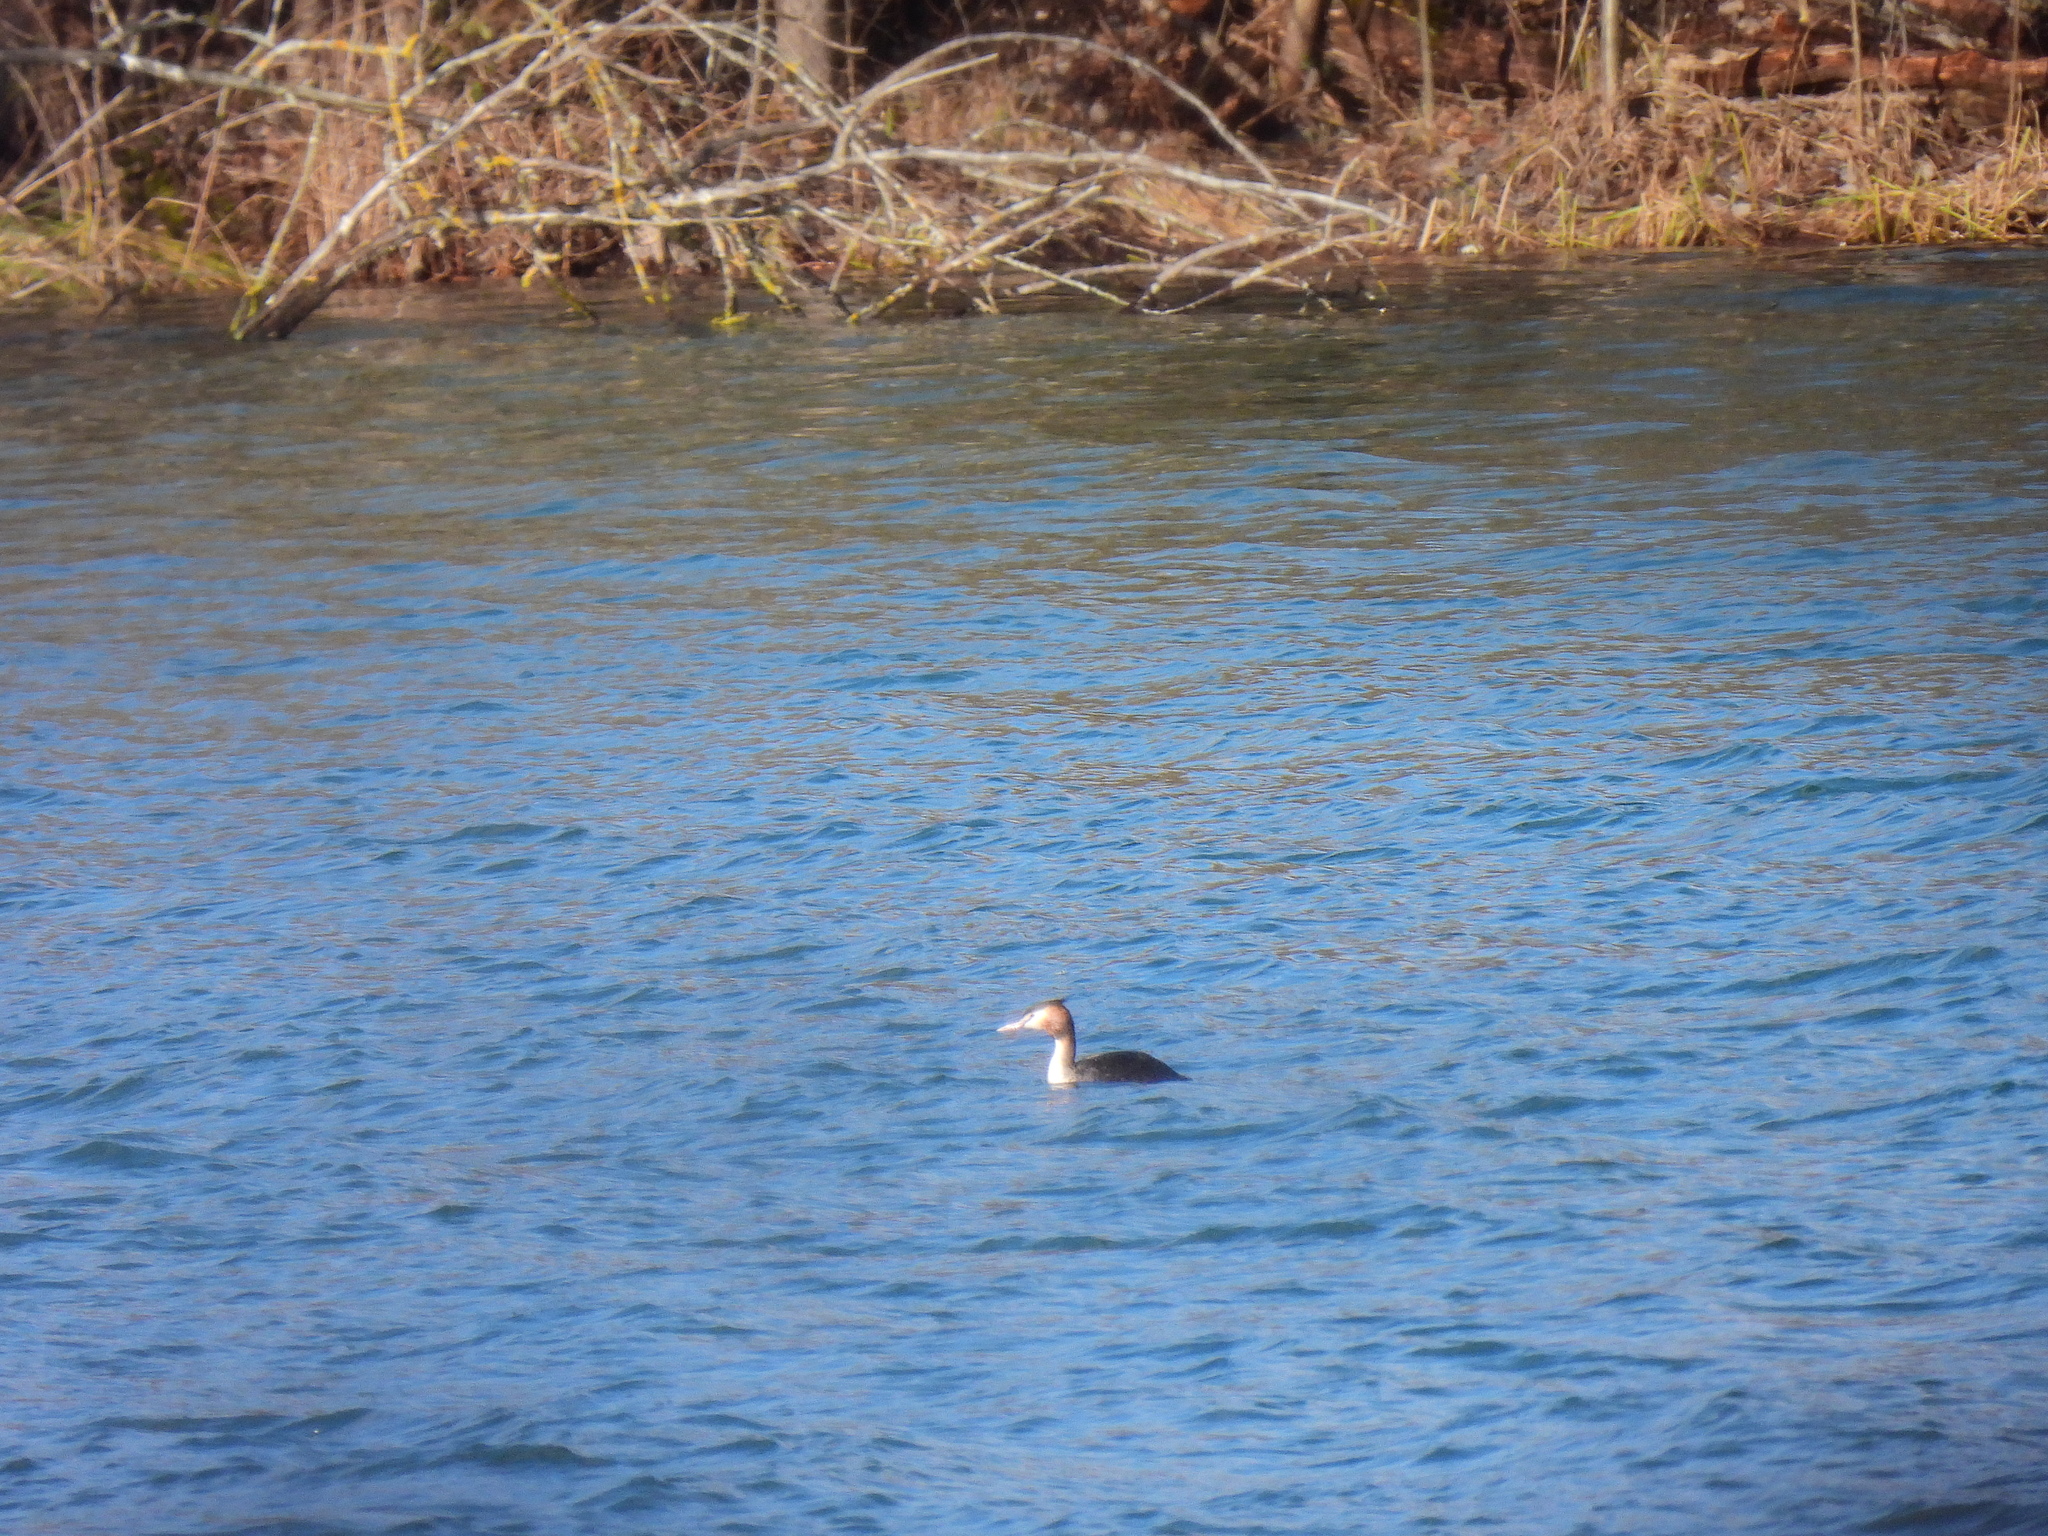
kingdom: Animalia
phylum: Chordata
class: Aves
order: Podicipediformes
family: Podicipedidae
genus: Podiceps
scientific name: Podiceps cristatus
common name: Great crested grebe
